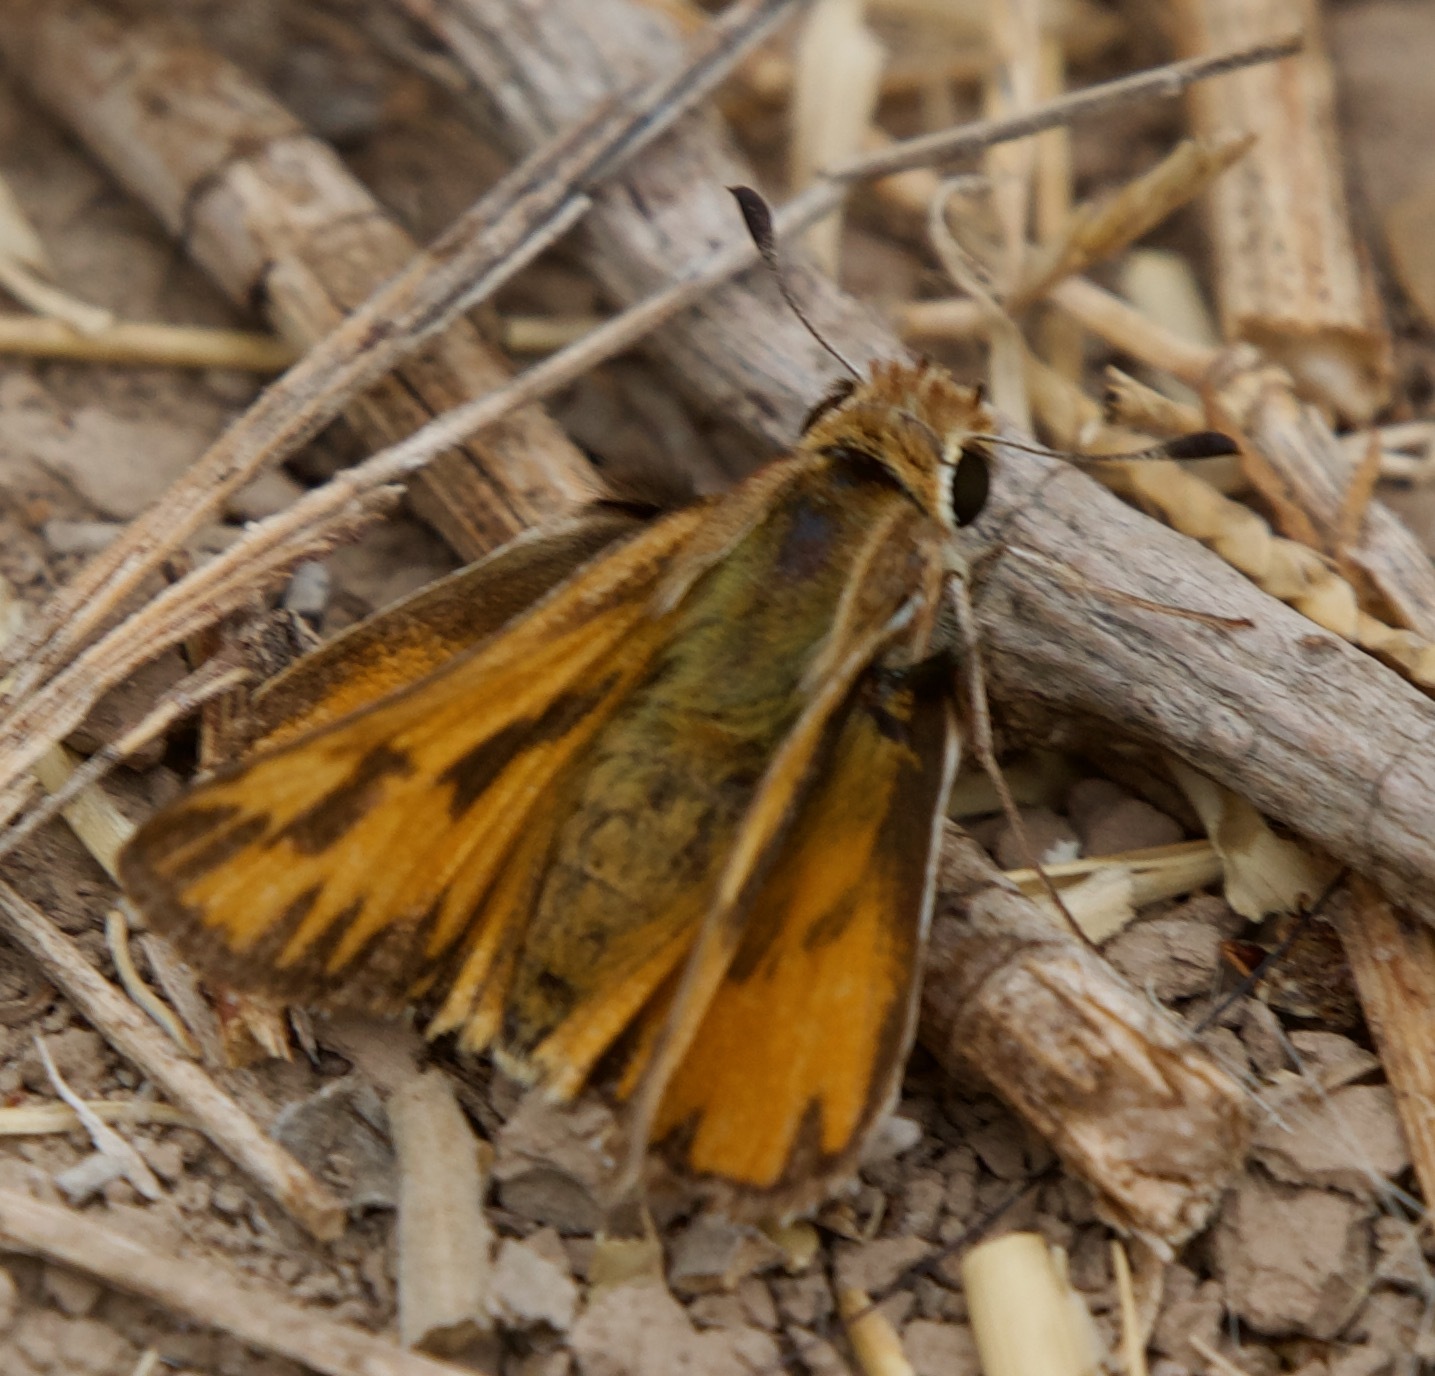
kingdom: Animalia
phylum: Arthropoda
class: Insecta
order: Lepidoptera
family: Hesperiidae
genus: Hylephila
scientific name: Hylephila fasciolata
